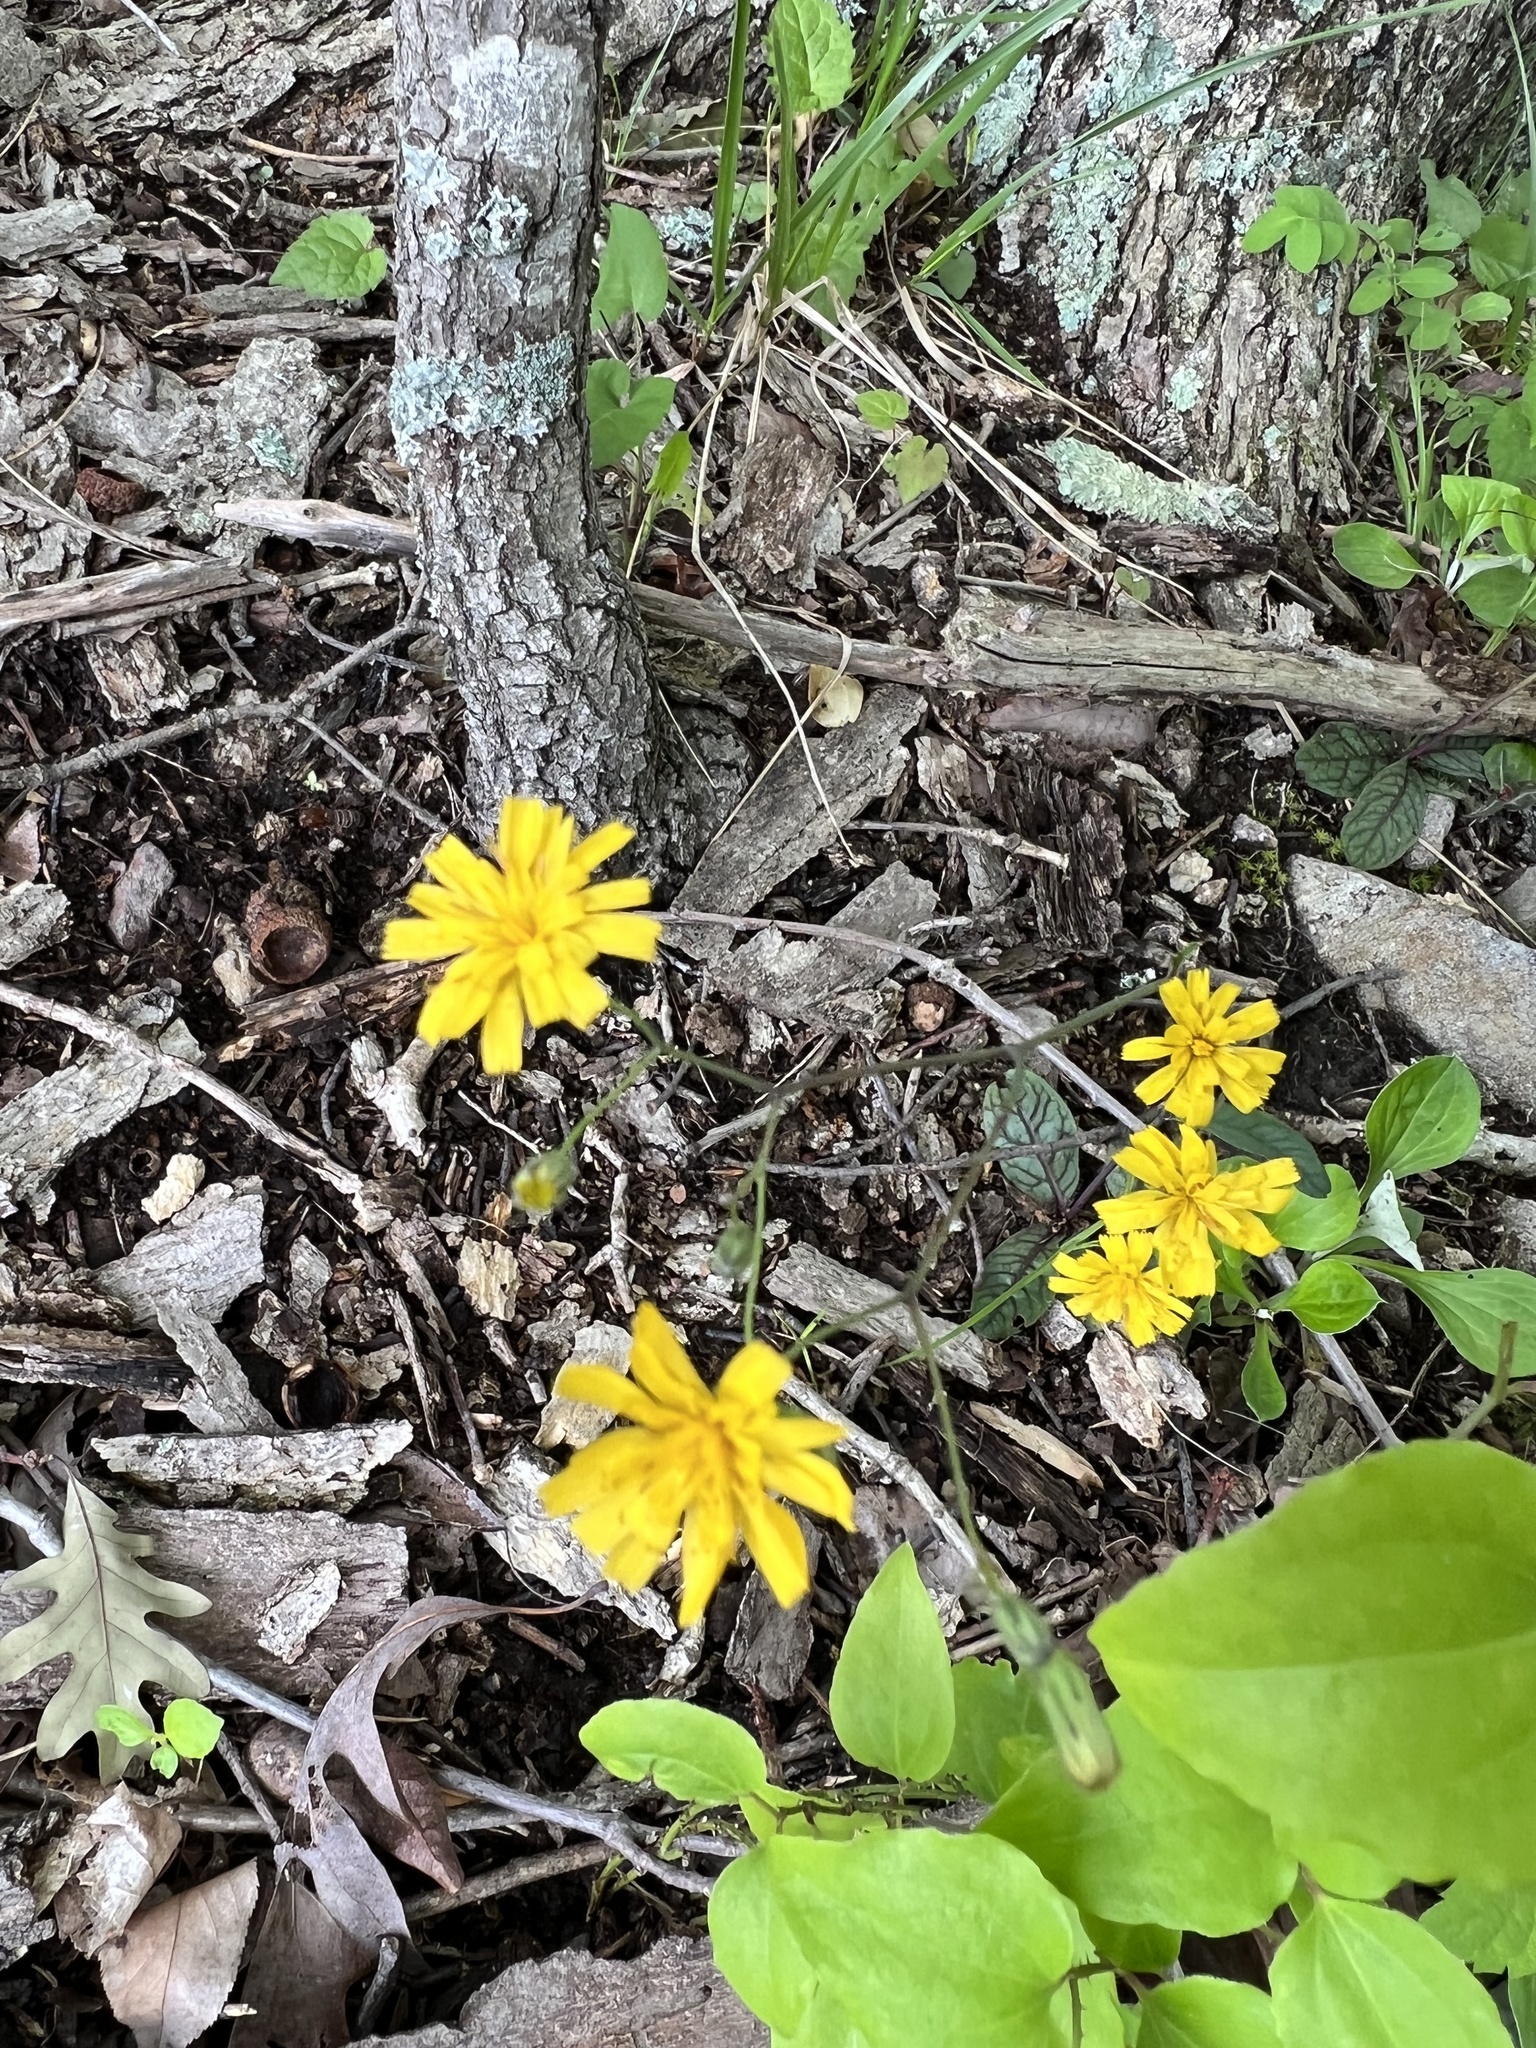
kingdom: Plantae
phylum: Tracheophyta
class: Magnoliopsida
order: Asterales
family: Asteraceae
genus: Hieracium
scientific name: Hieracium venosum
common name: Rattlesnake hawkweed
